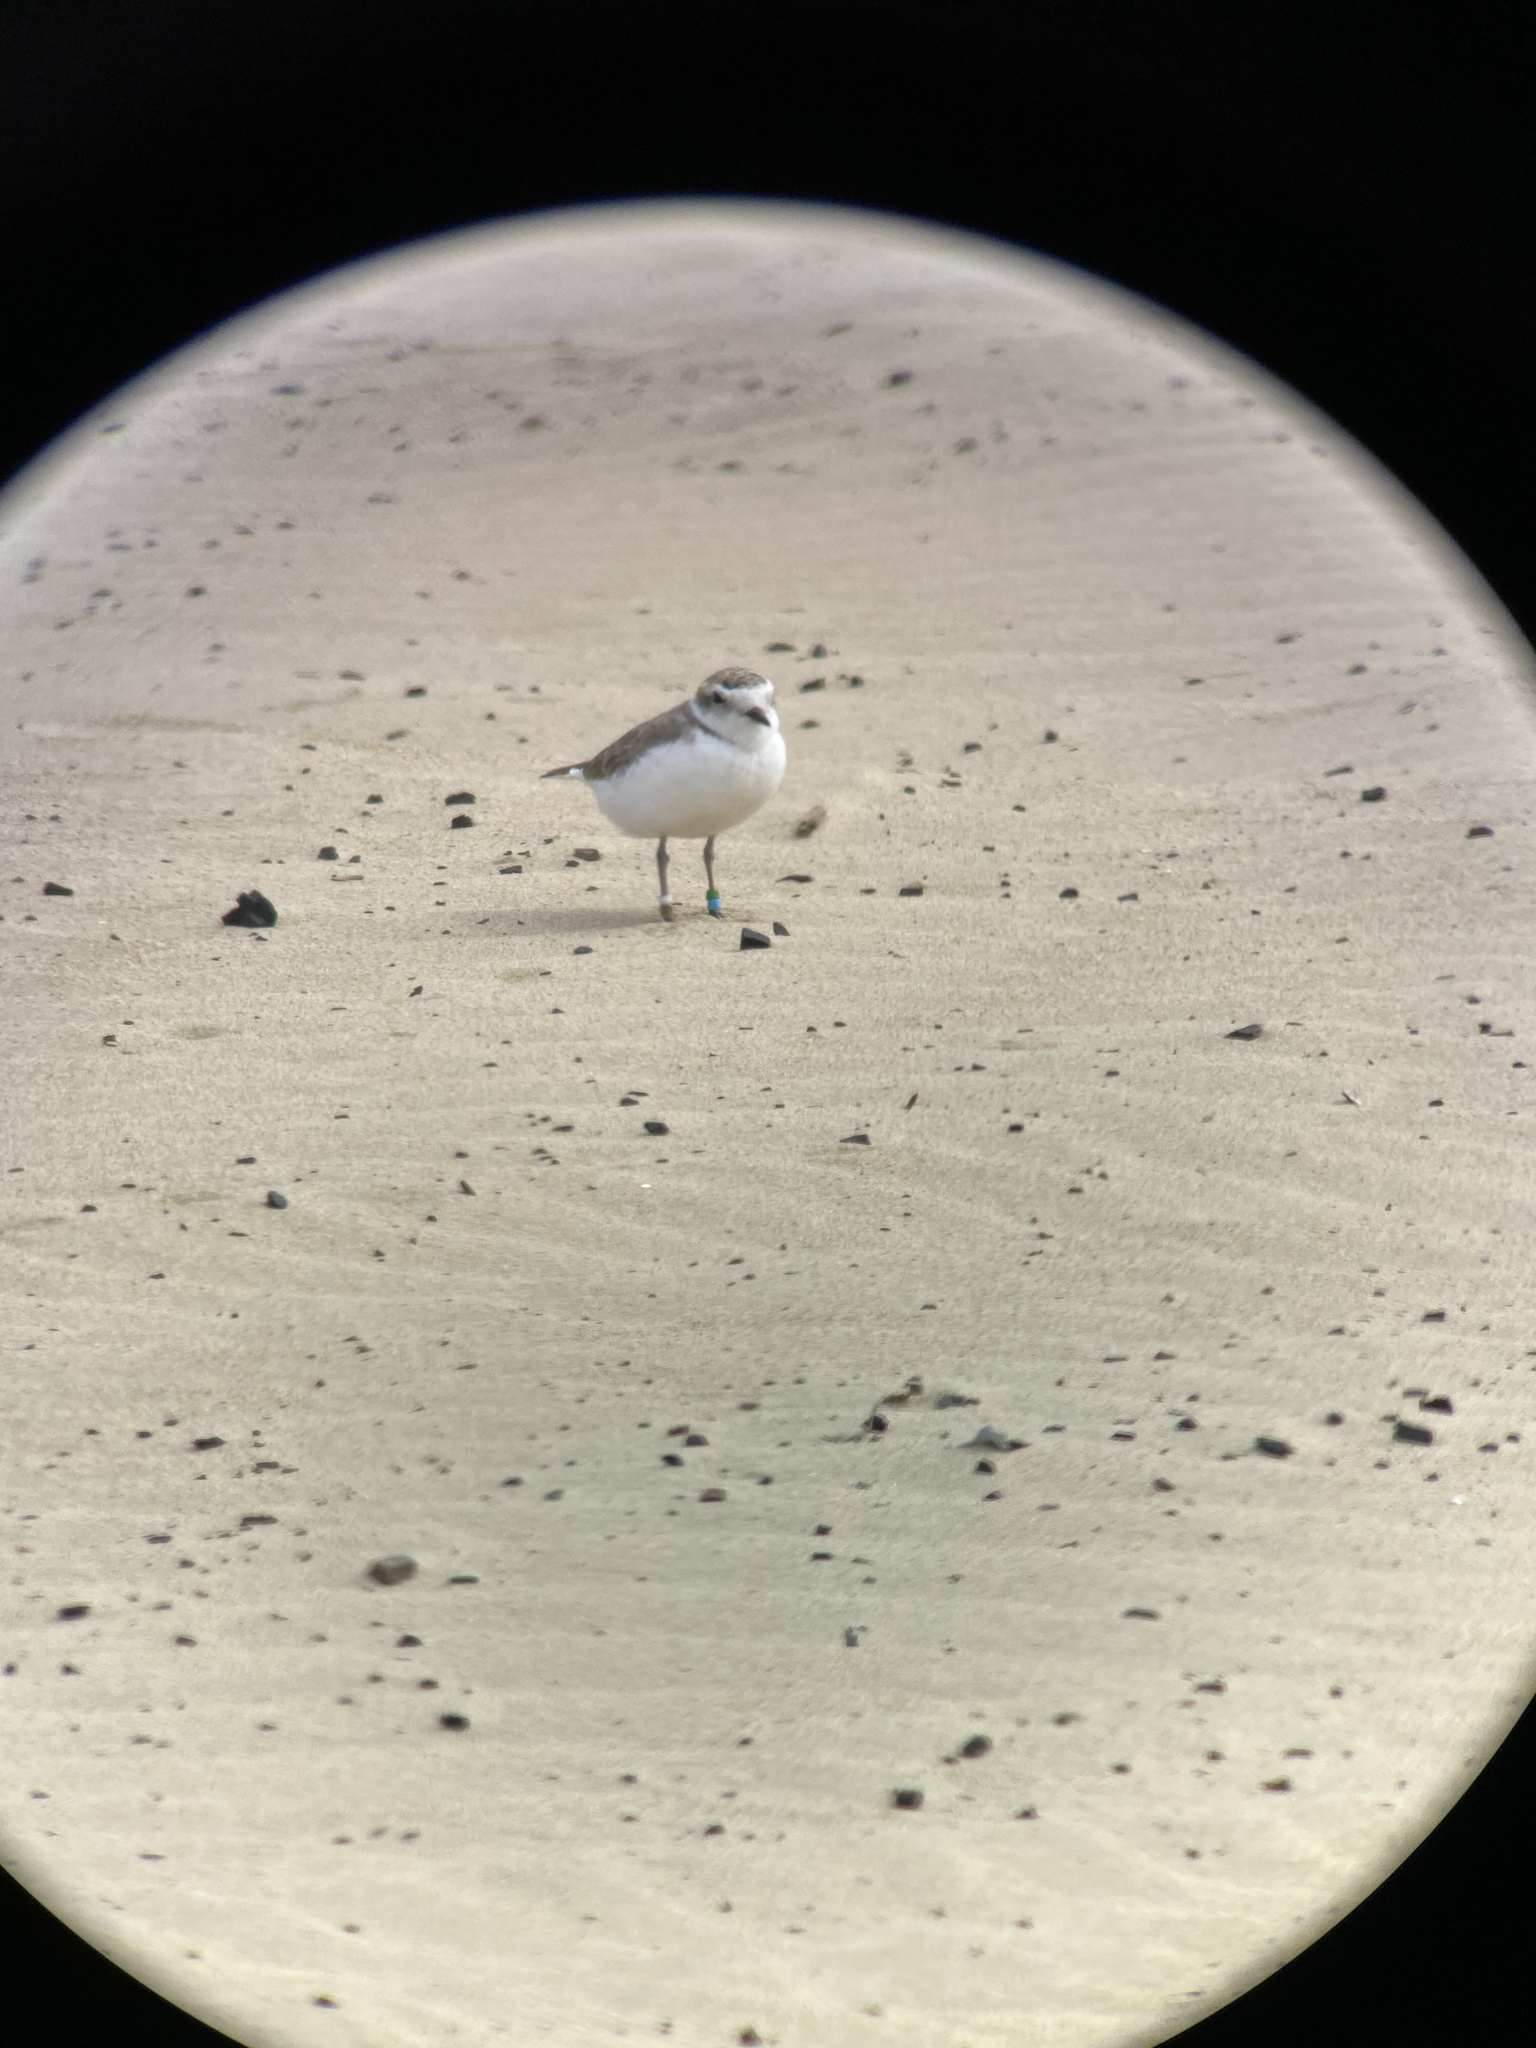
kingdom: Animalia
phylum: Chordata
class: Aves
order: Charadriiformes
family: Charadriidae
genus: Anarhynchus
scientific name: Anarhynchus
